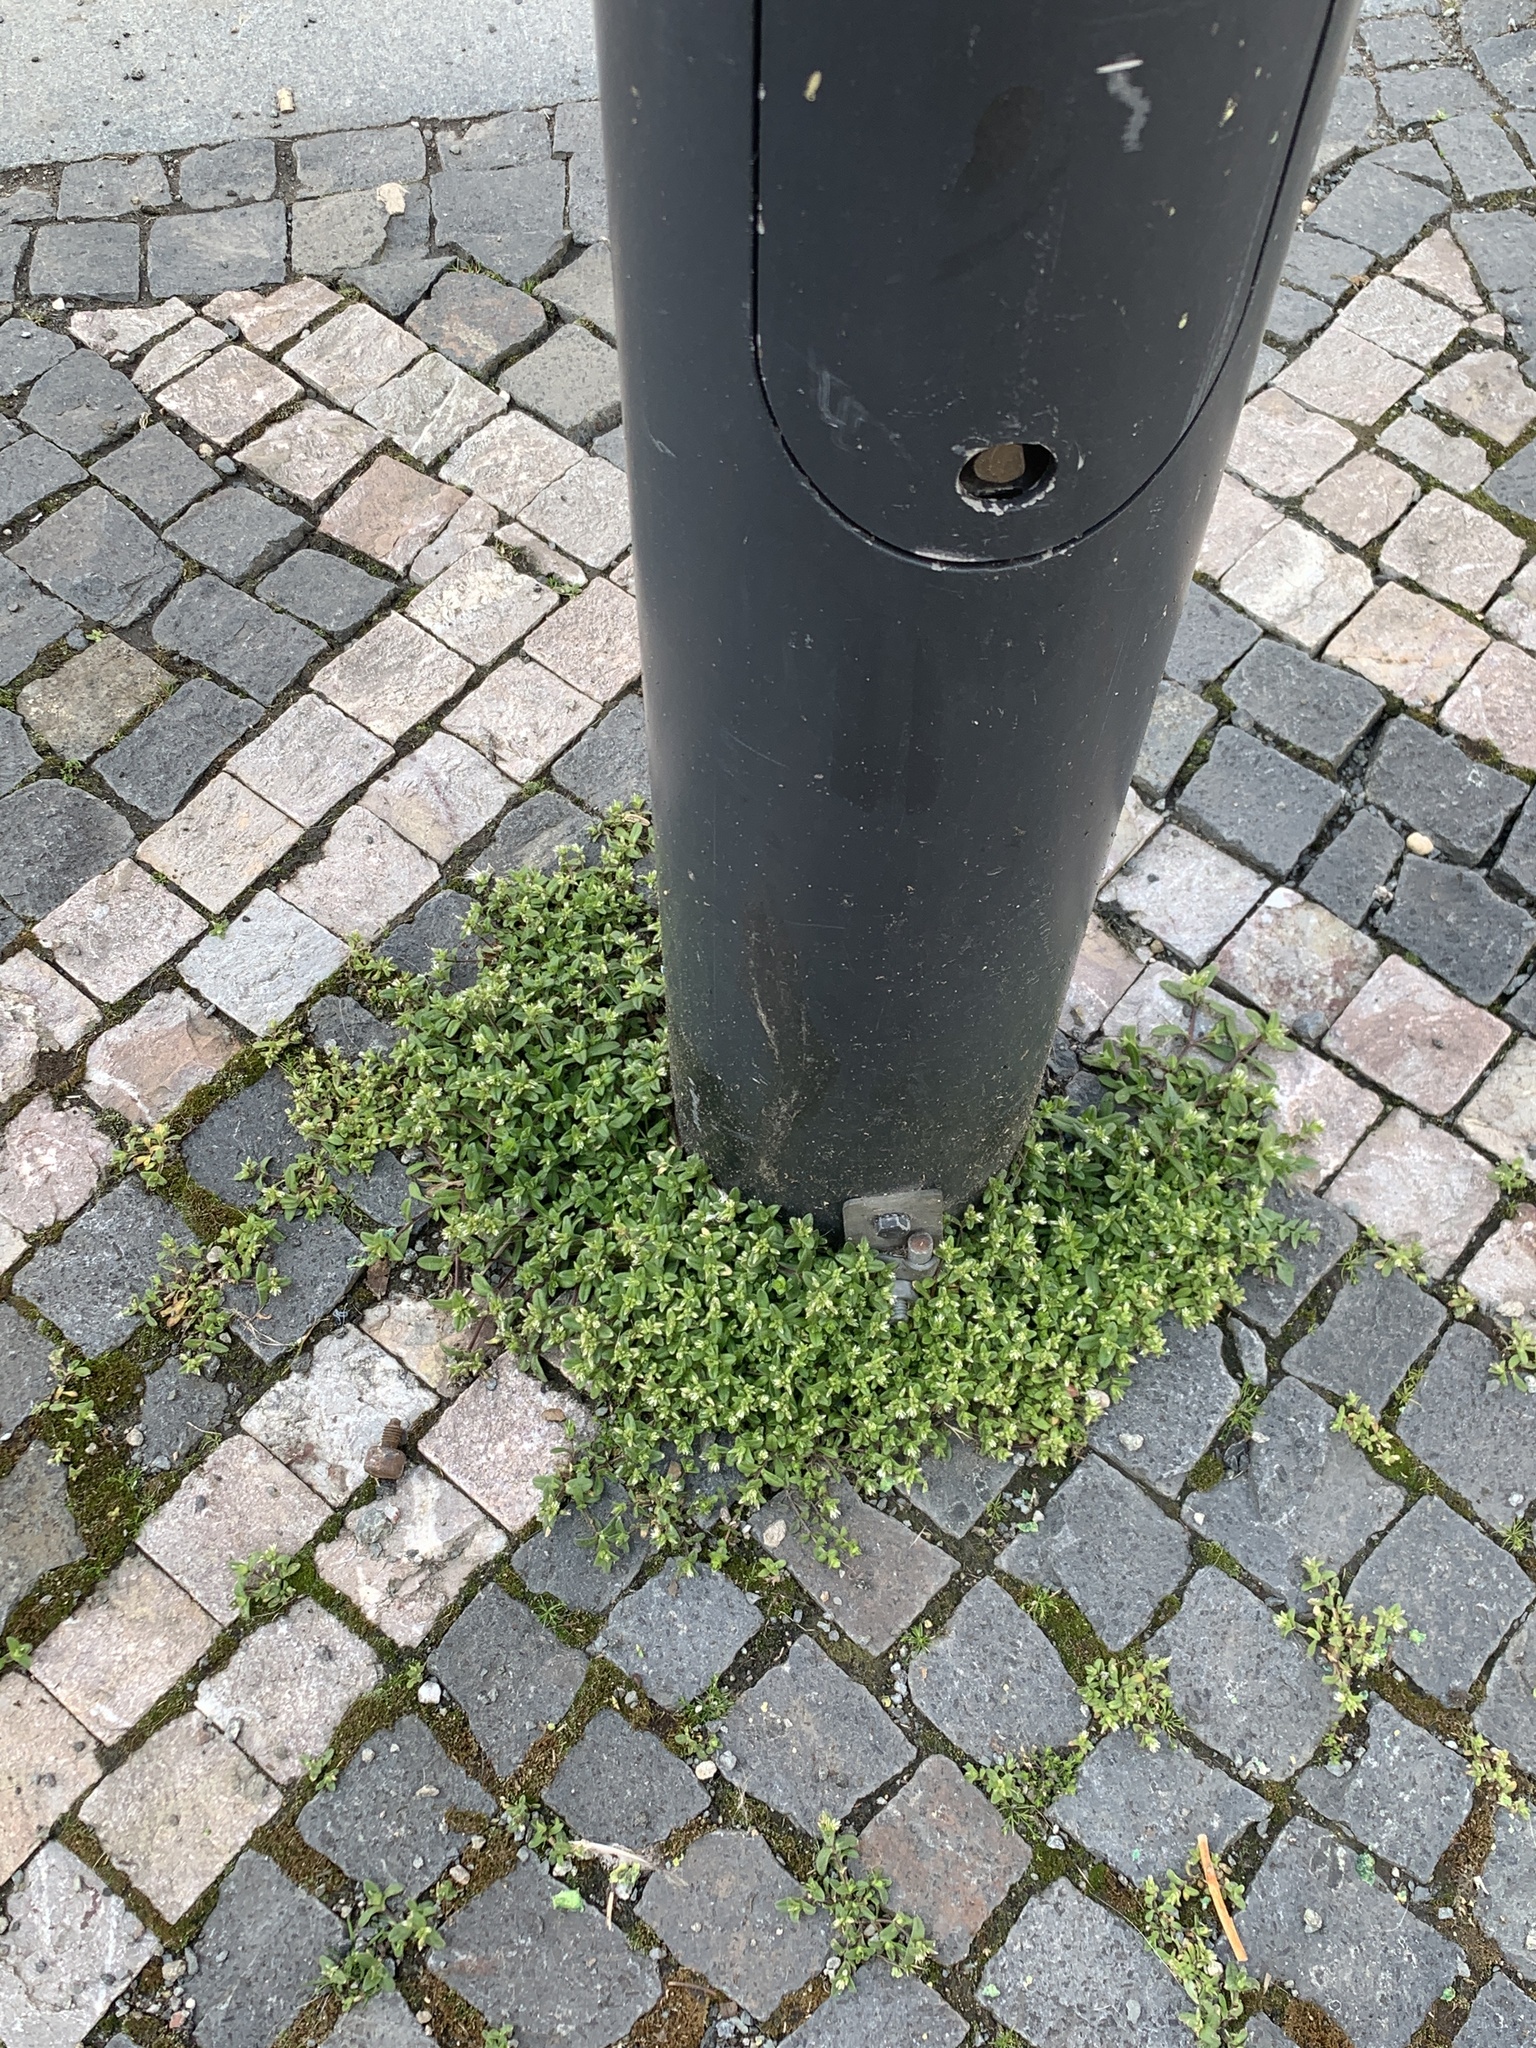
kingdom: Plantae
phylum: Tracheophyta
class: Magnoliopsida
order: Caryophyllales
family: Caryophyllaceae
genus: Cerastium
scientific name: Cerastium glomeratum
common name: Sticky chickweed
